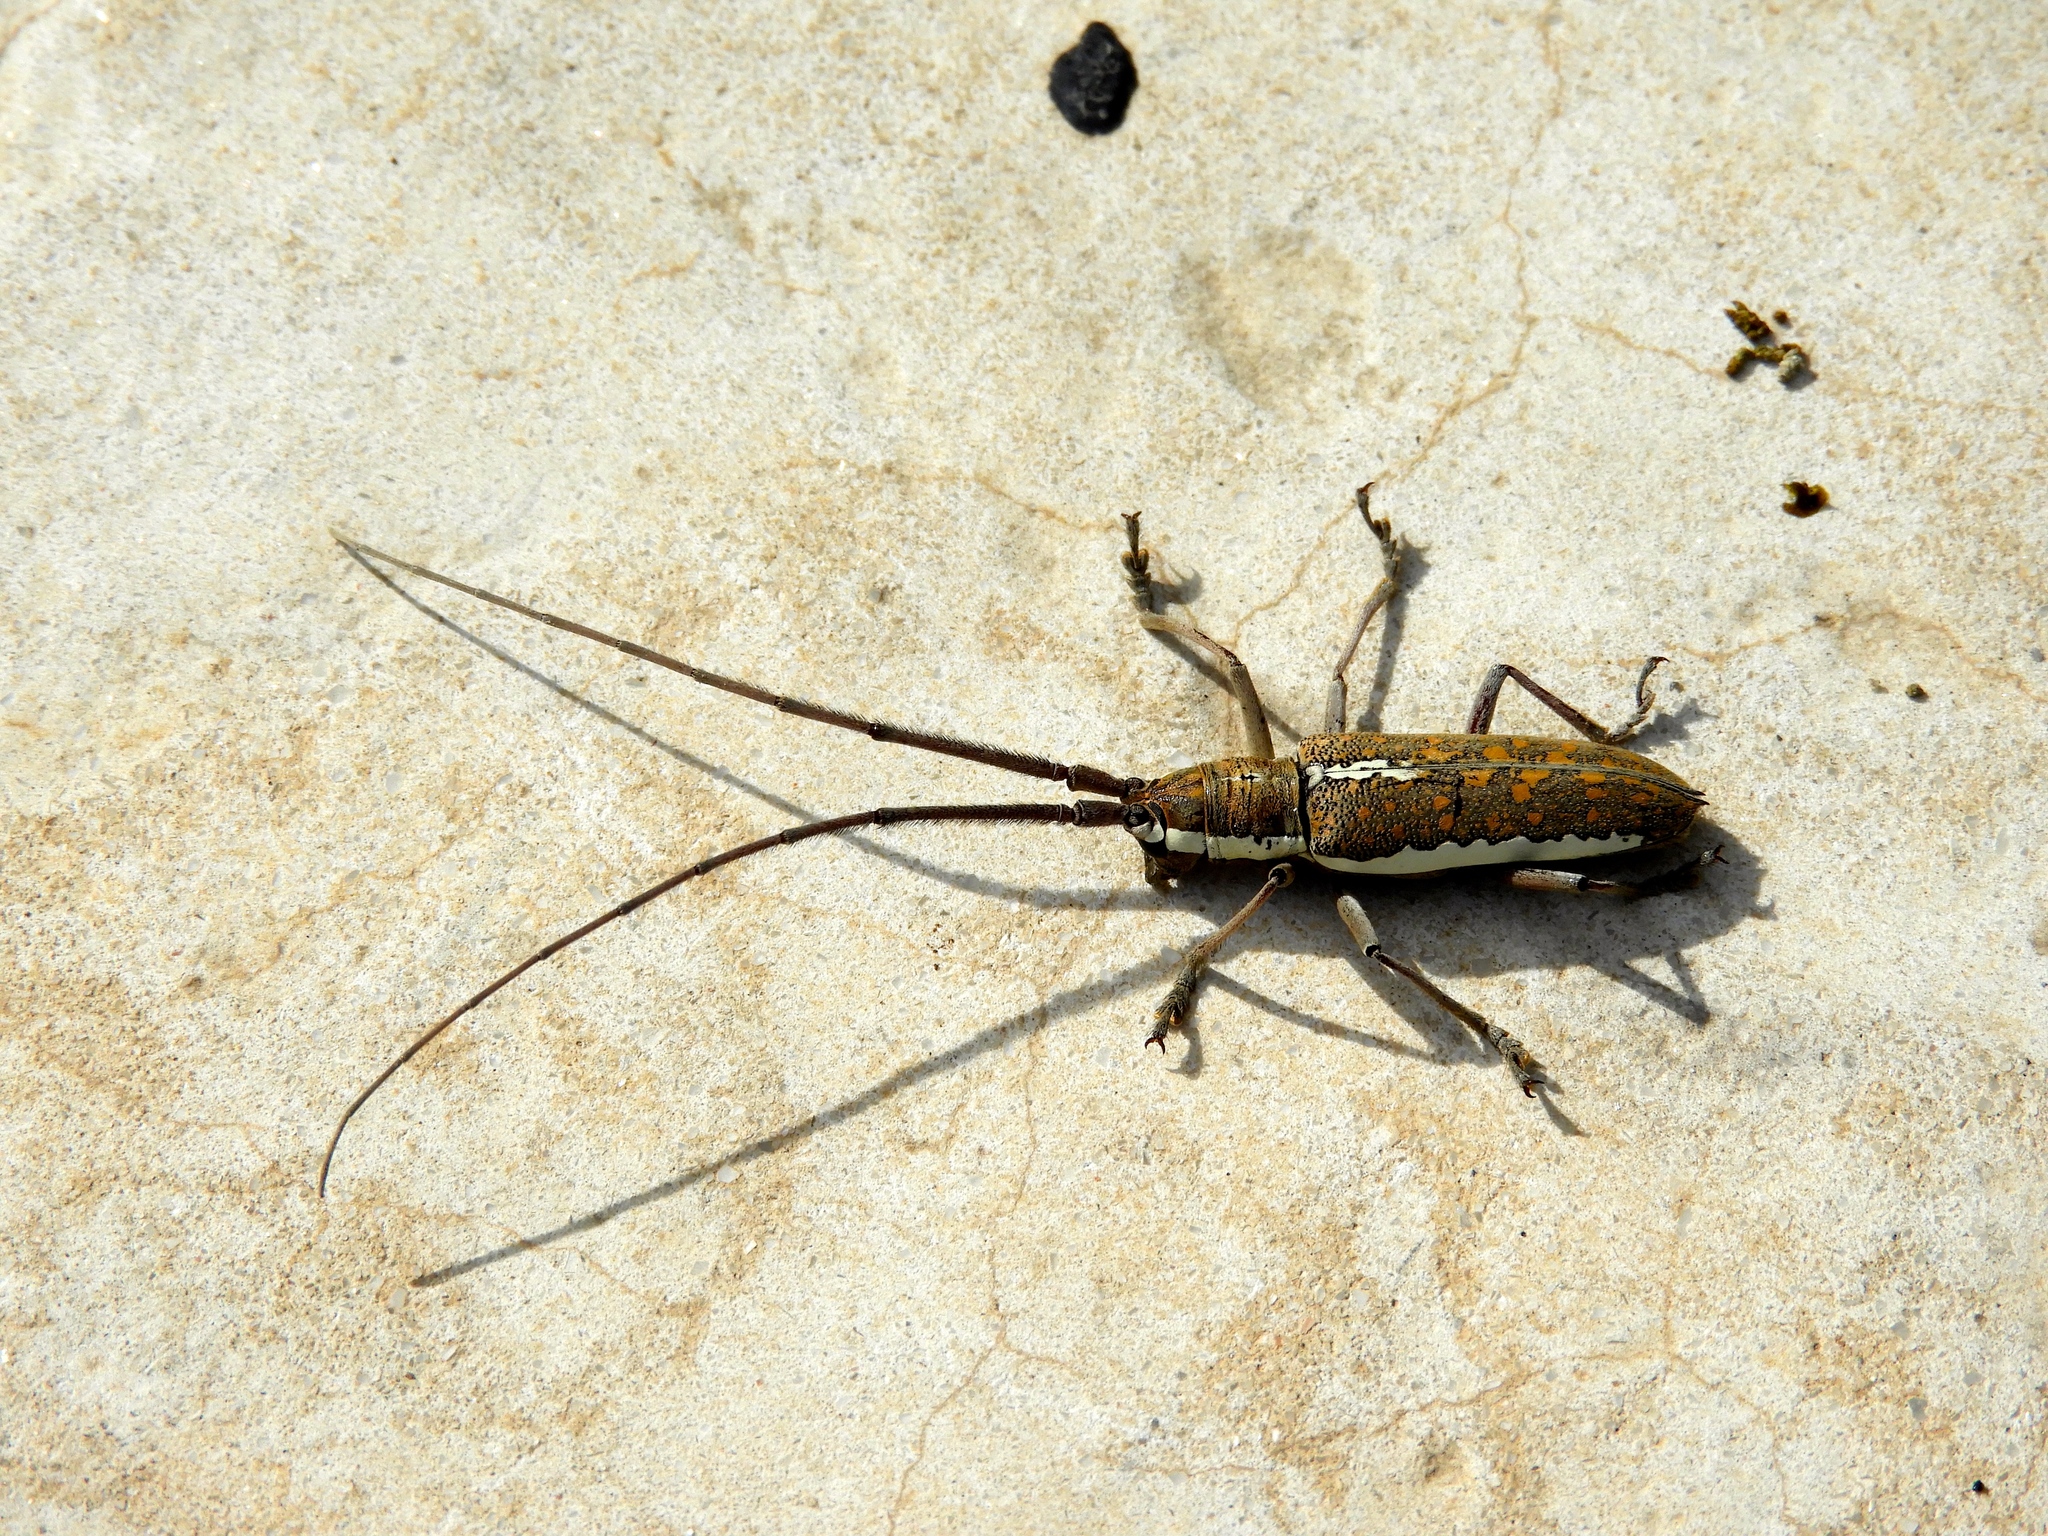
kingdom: Animalia
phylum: Arthropoda
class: Insecta
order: Coleoptera
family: Cerambycidae
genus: Neoptychodes
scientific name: Neoptychodes trilineatus
